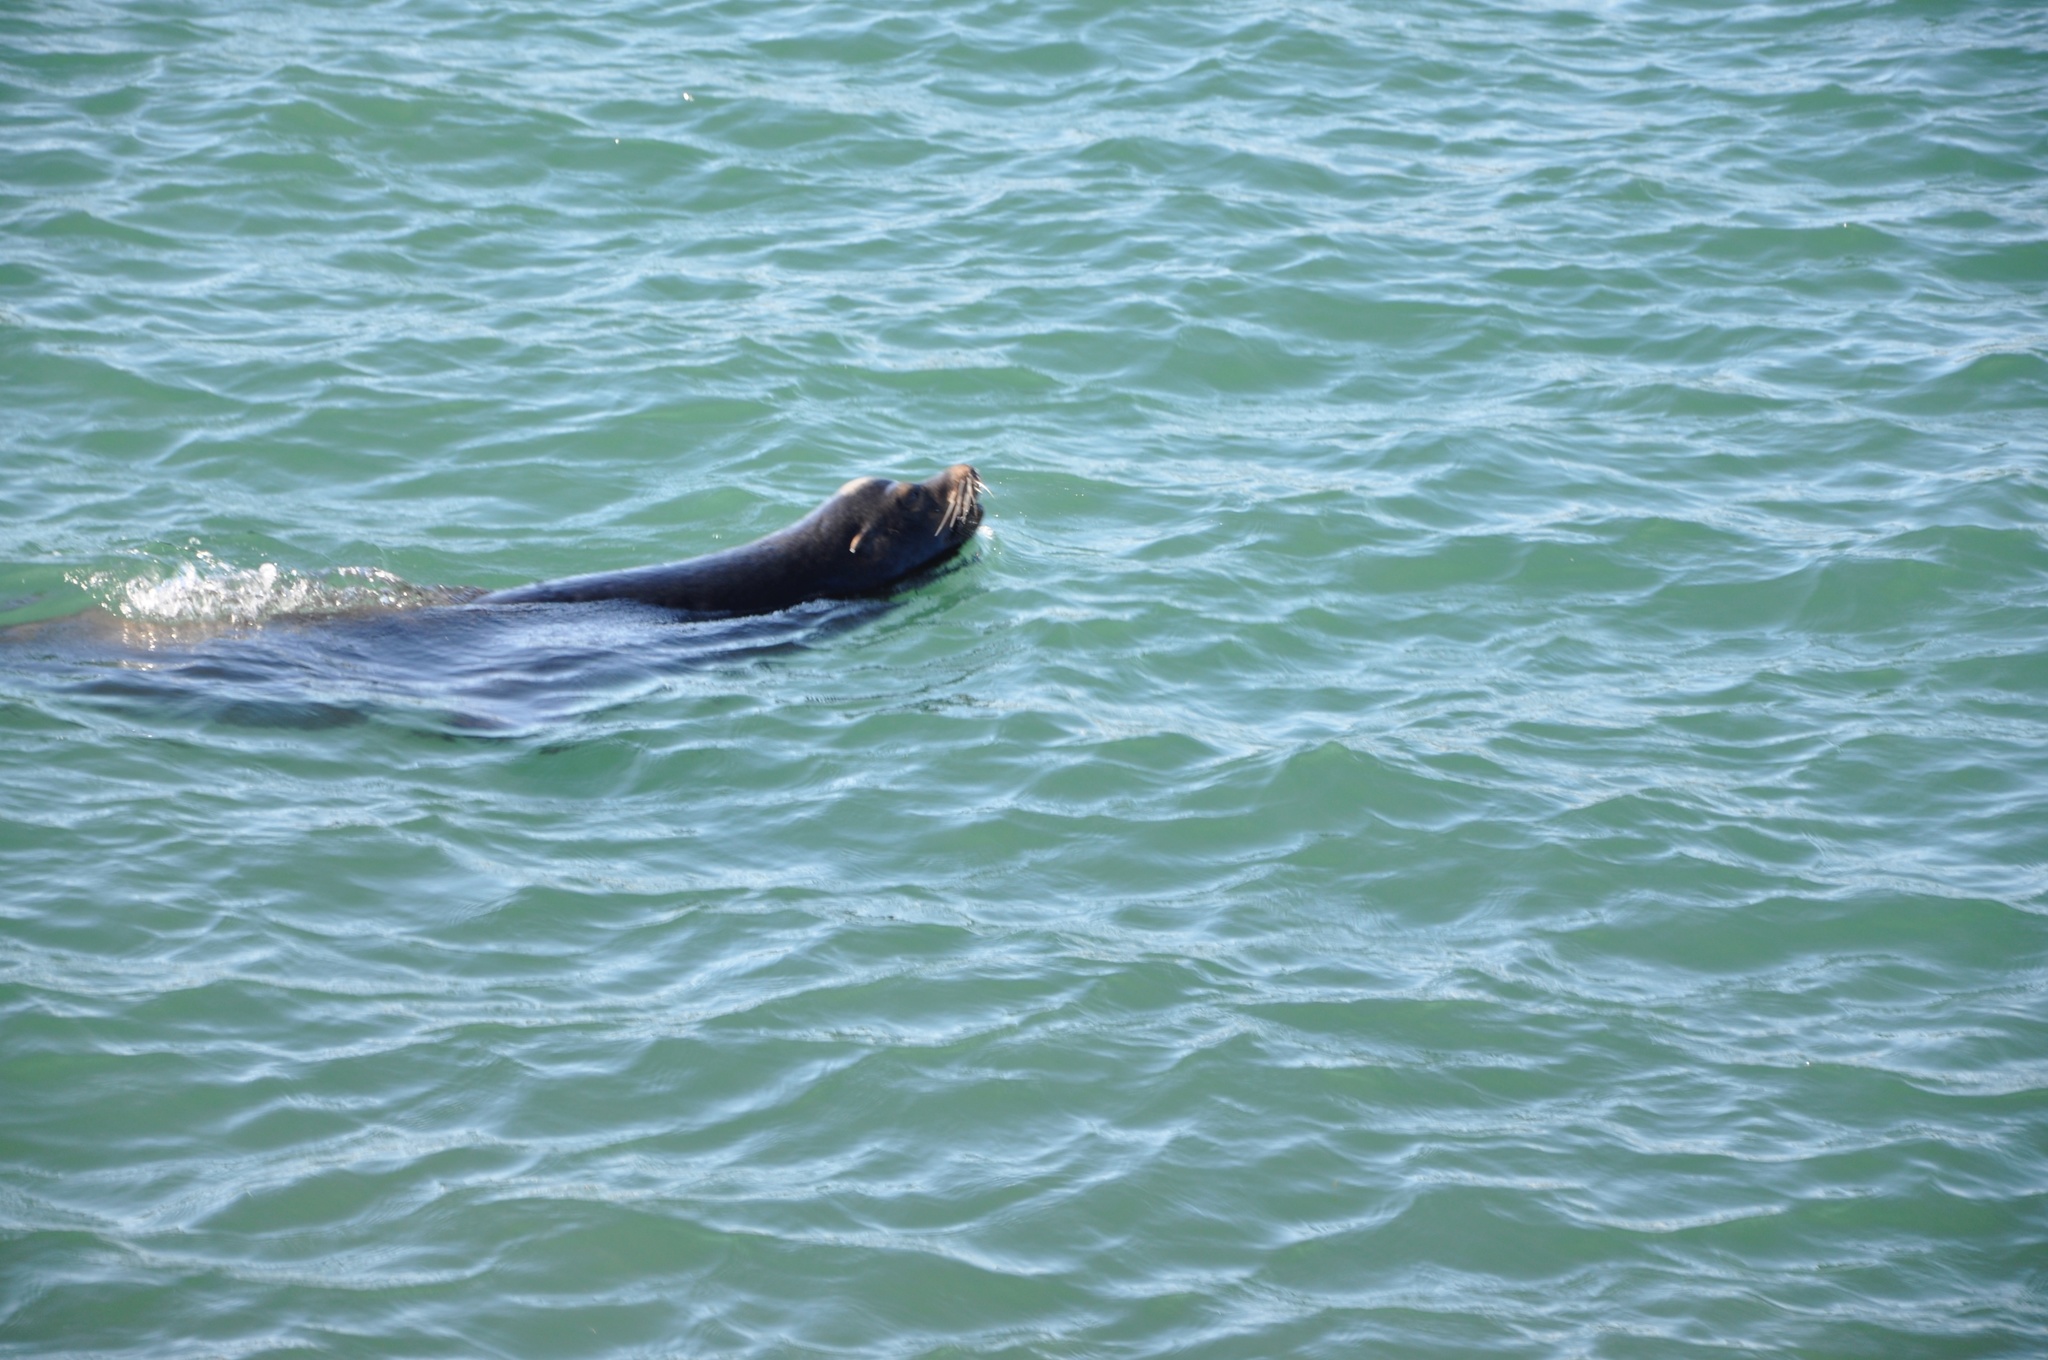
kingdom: Animalia
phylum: Chordata
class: Mammalia
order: Carnivora
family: Otariidae
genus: Zalophus
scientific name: Zalophus californianus
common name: California sea lion
